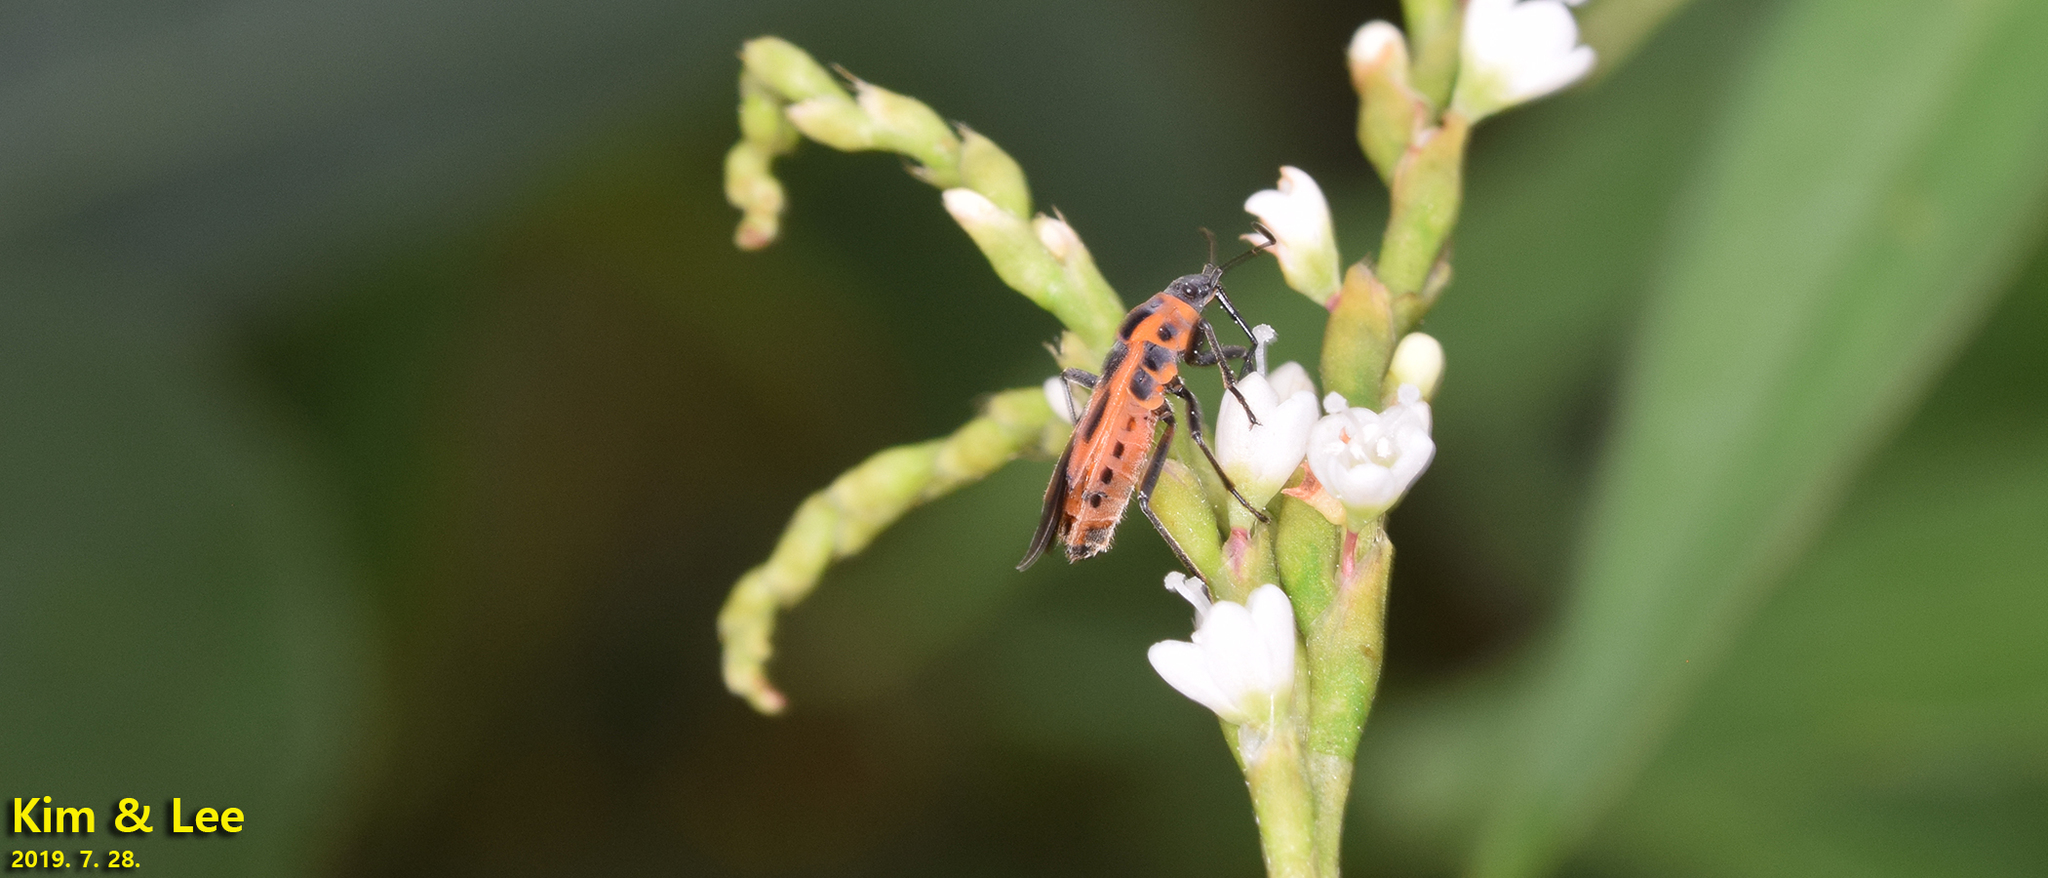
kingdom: Animalia
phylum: Arthropoda
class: Insecta
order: Hemiptera
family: Lygaeidae
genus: Tropidothorax
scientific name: Tropidothorax cruciger
